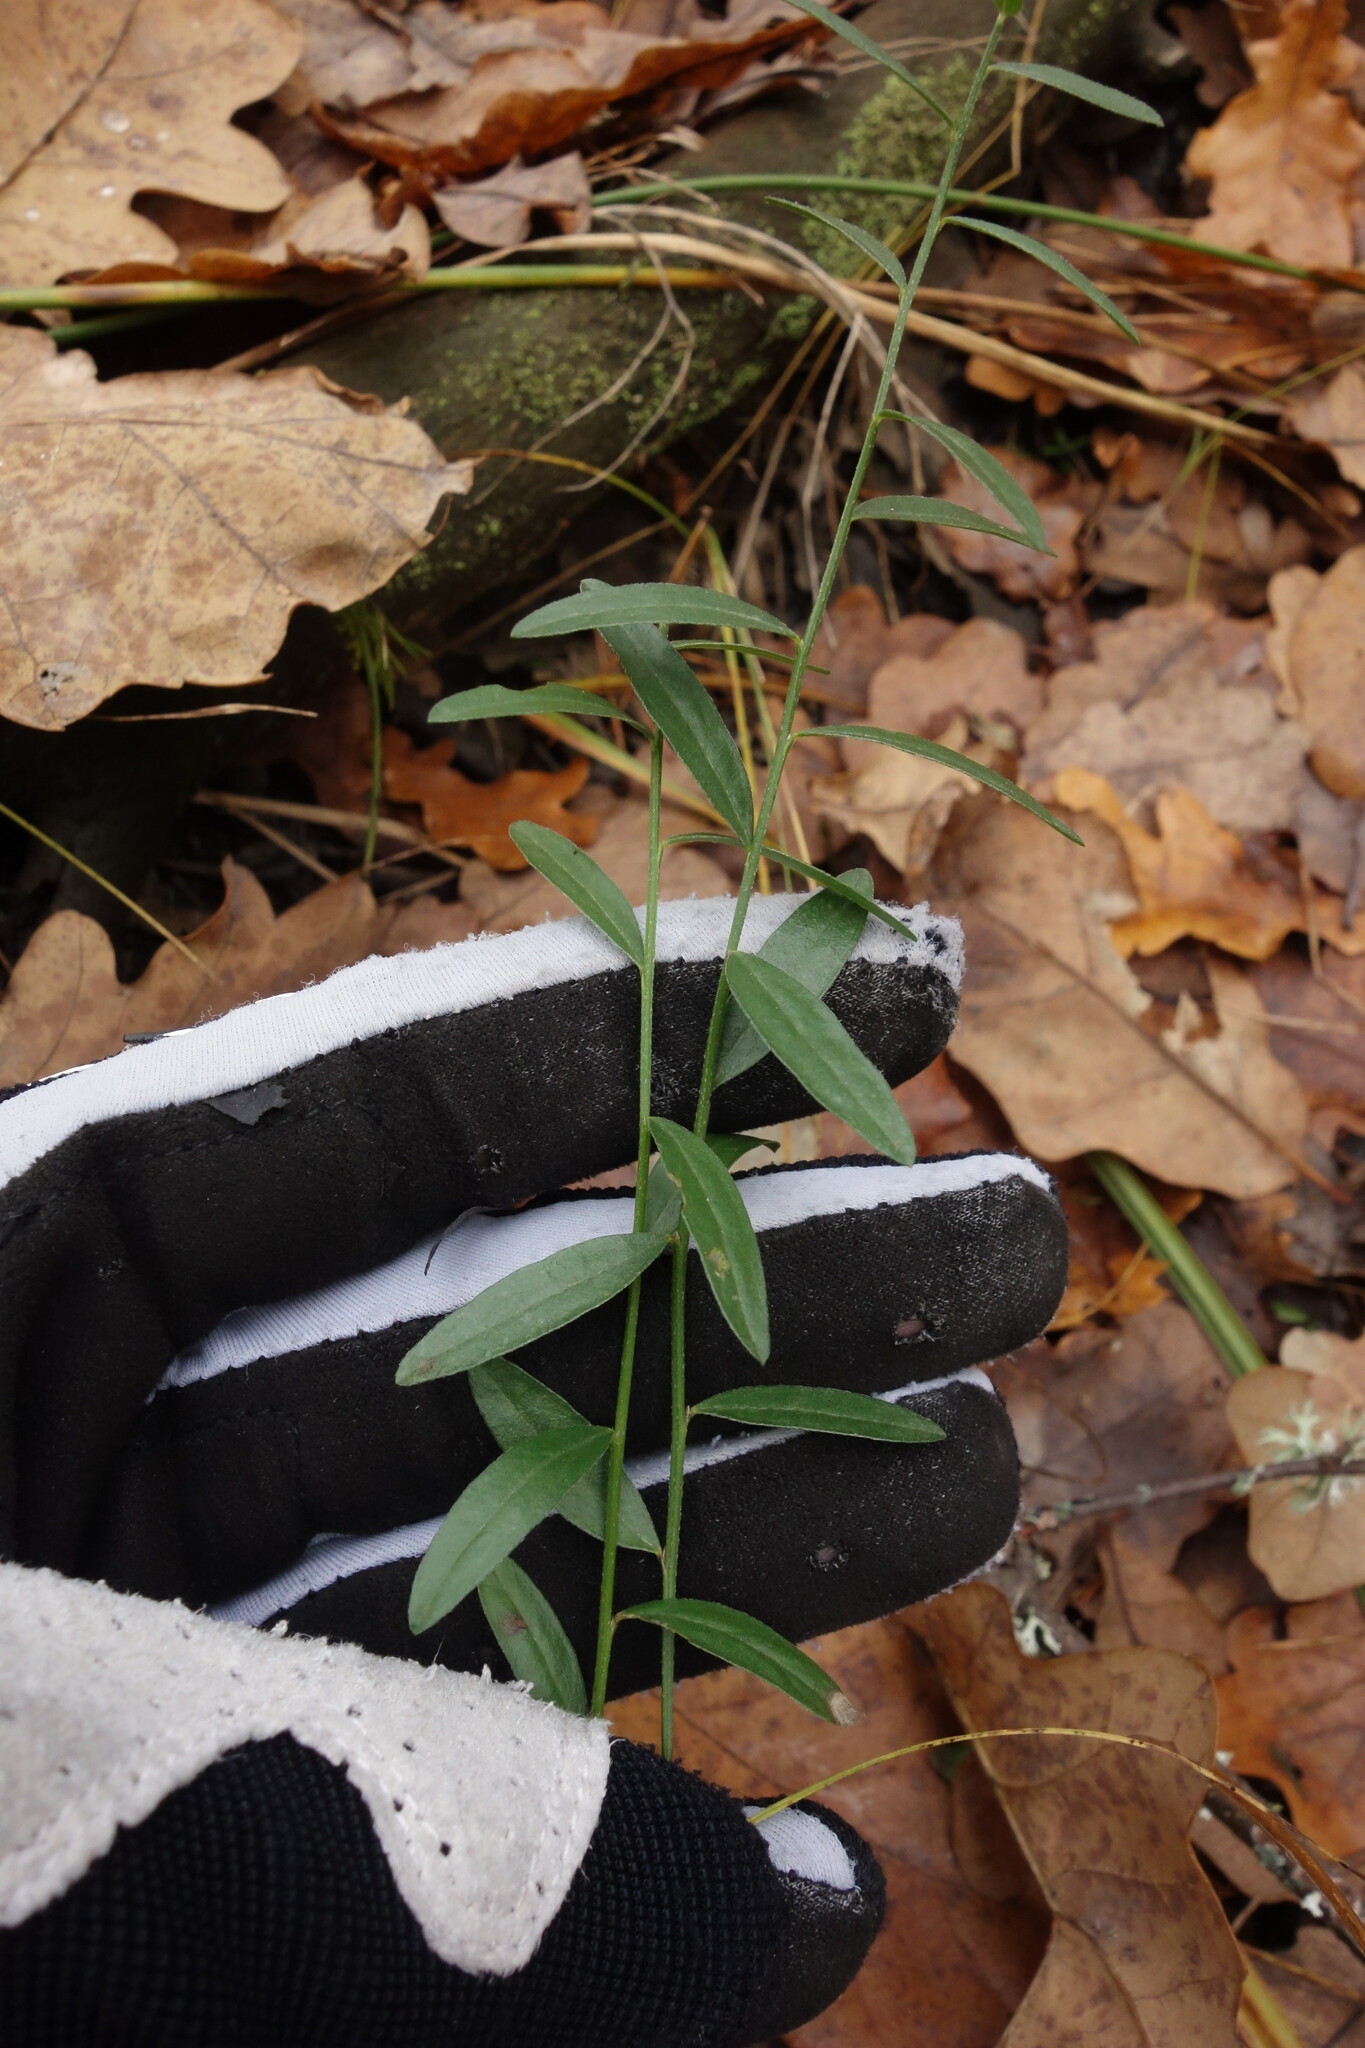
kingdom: Plantae
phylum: Tracheophyta
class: Magnoliopsida
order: Fabales
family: Fabaceae
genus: Genista
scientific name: Genista tinctoria
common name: Dyer's greenweed
